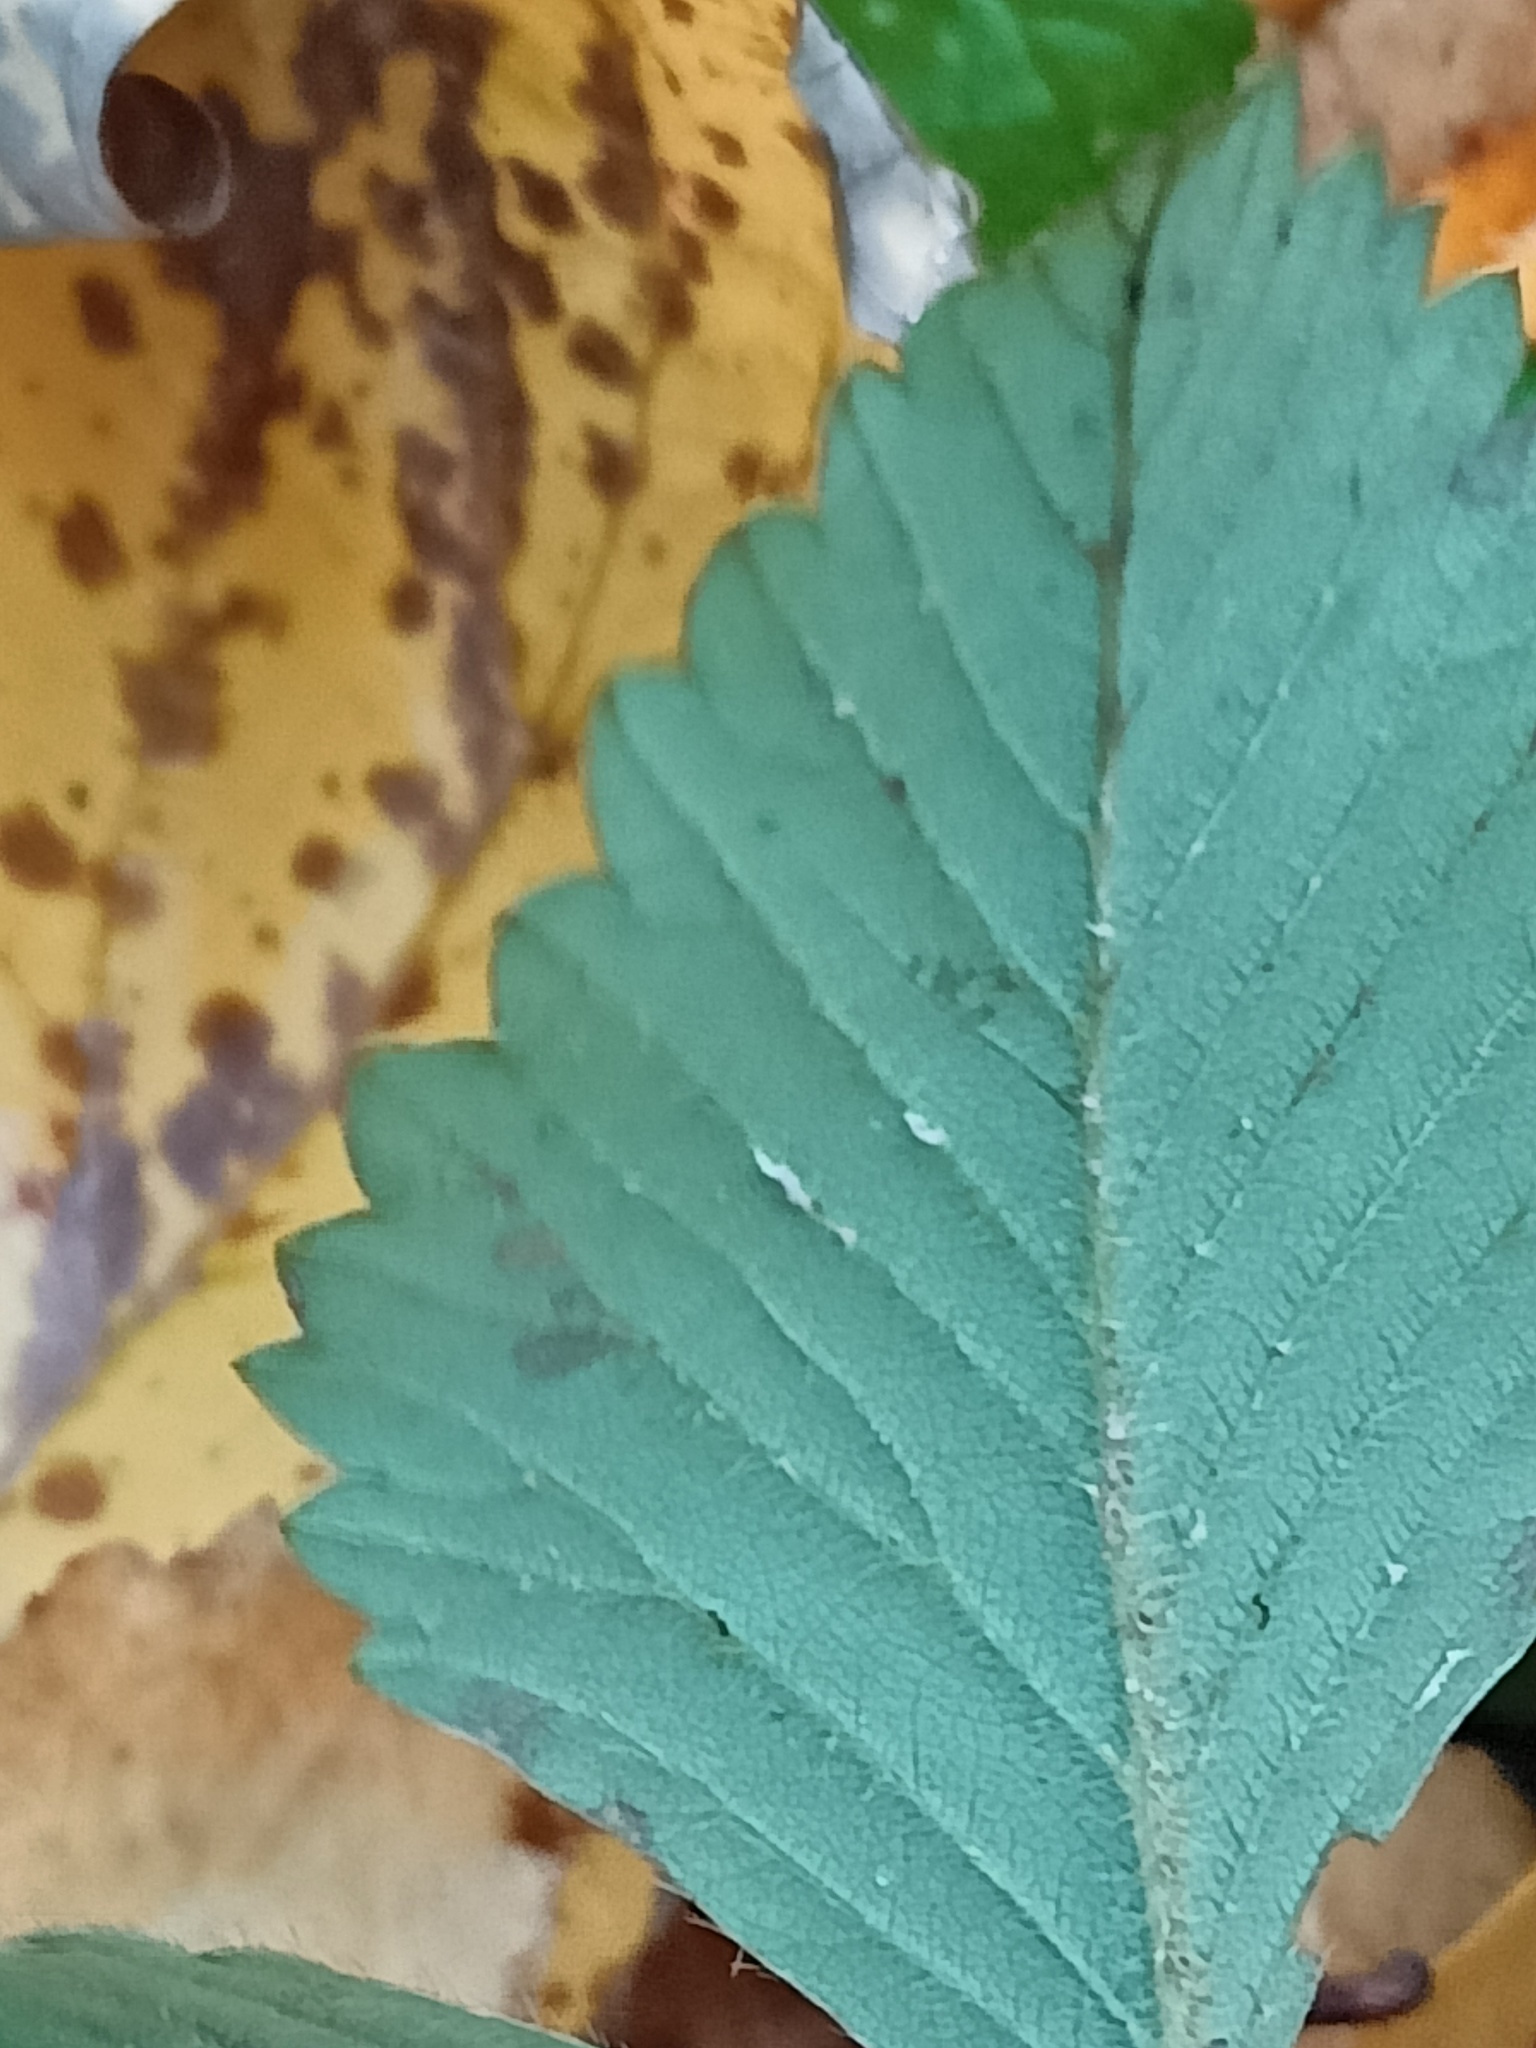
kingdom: Plantae
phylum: Tracheophyta
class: Magnoliopsida
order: Rosales
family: Rosaceae
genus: Fragaria
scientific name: Fragaria moschata
